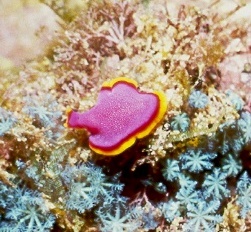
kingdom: Animalia
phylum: Platyhelminthes
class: Turbellaria
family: Pseudocerotidae
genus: Pseudoceros
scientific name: Pseudoceros ferrugineus
